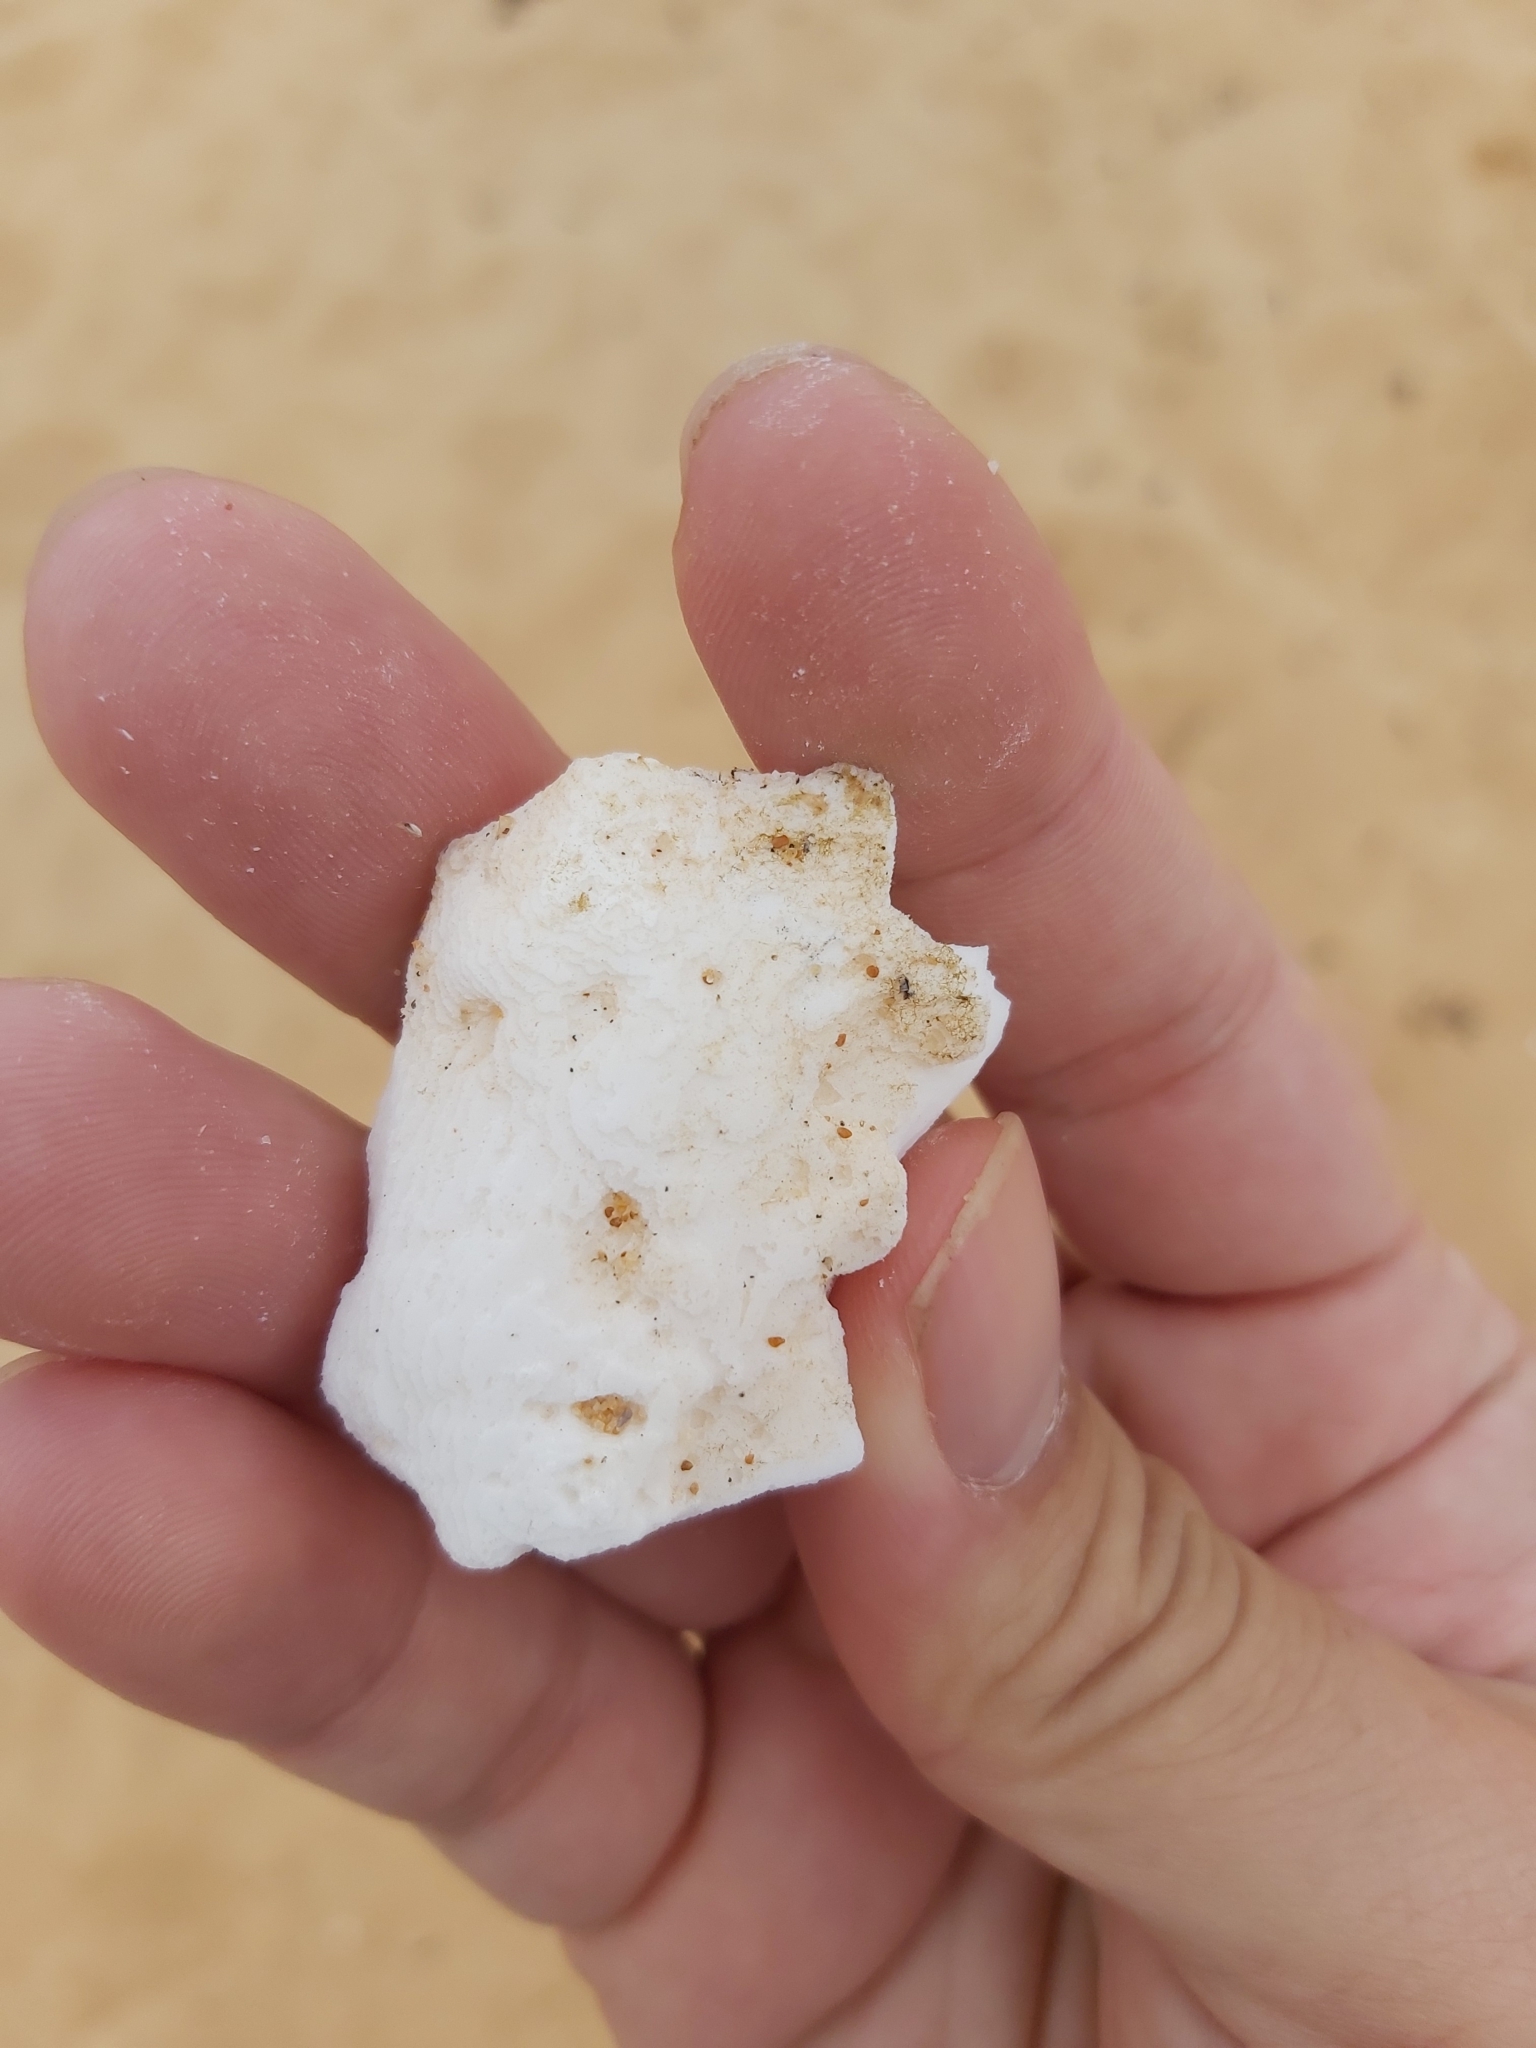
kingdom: Animalia
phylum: Mollusca
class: Cephalopoda
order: Sepiida
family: Sepiidae
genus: Ascarosepion
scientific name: Ascarosepion apama
